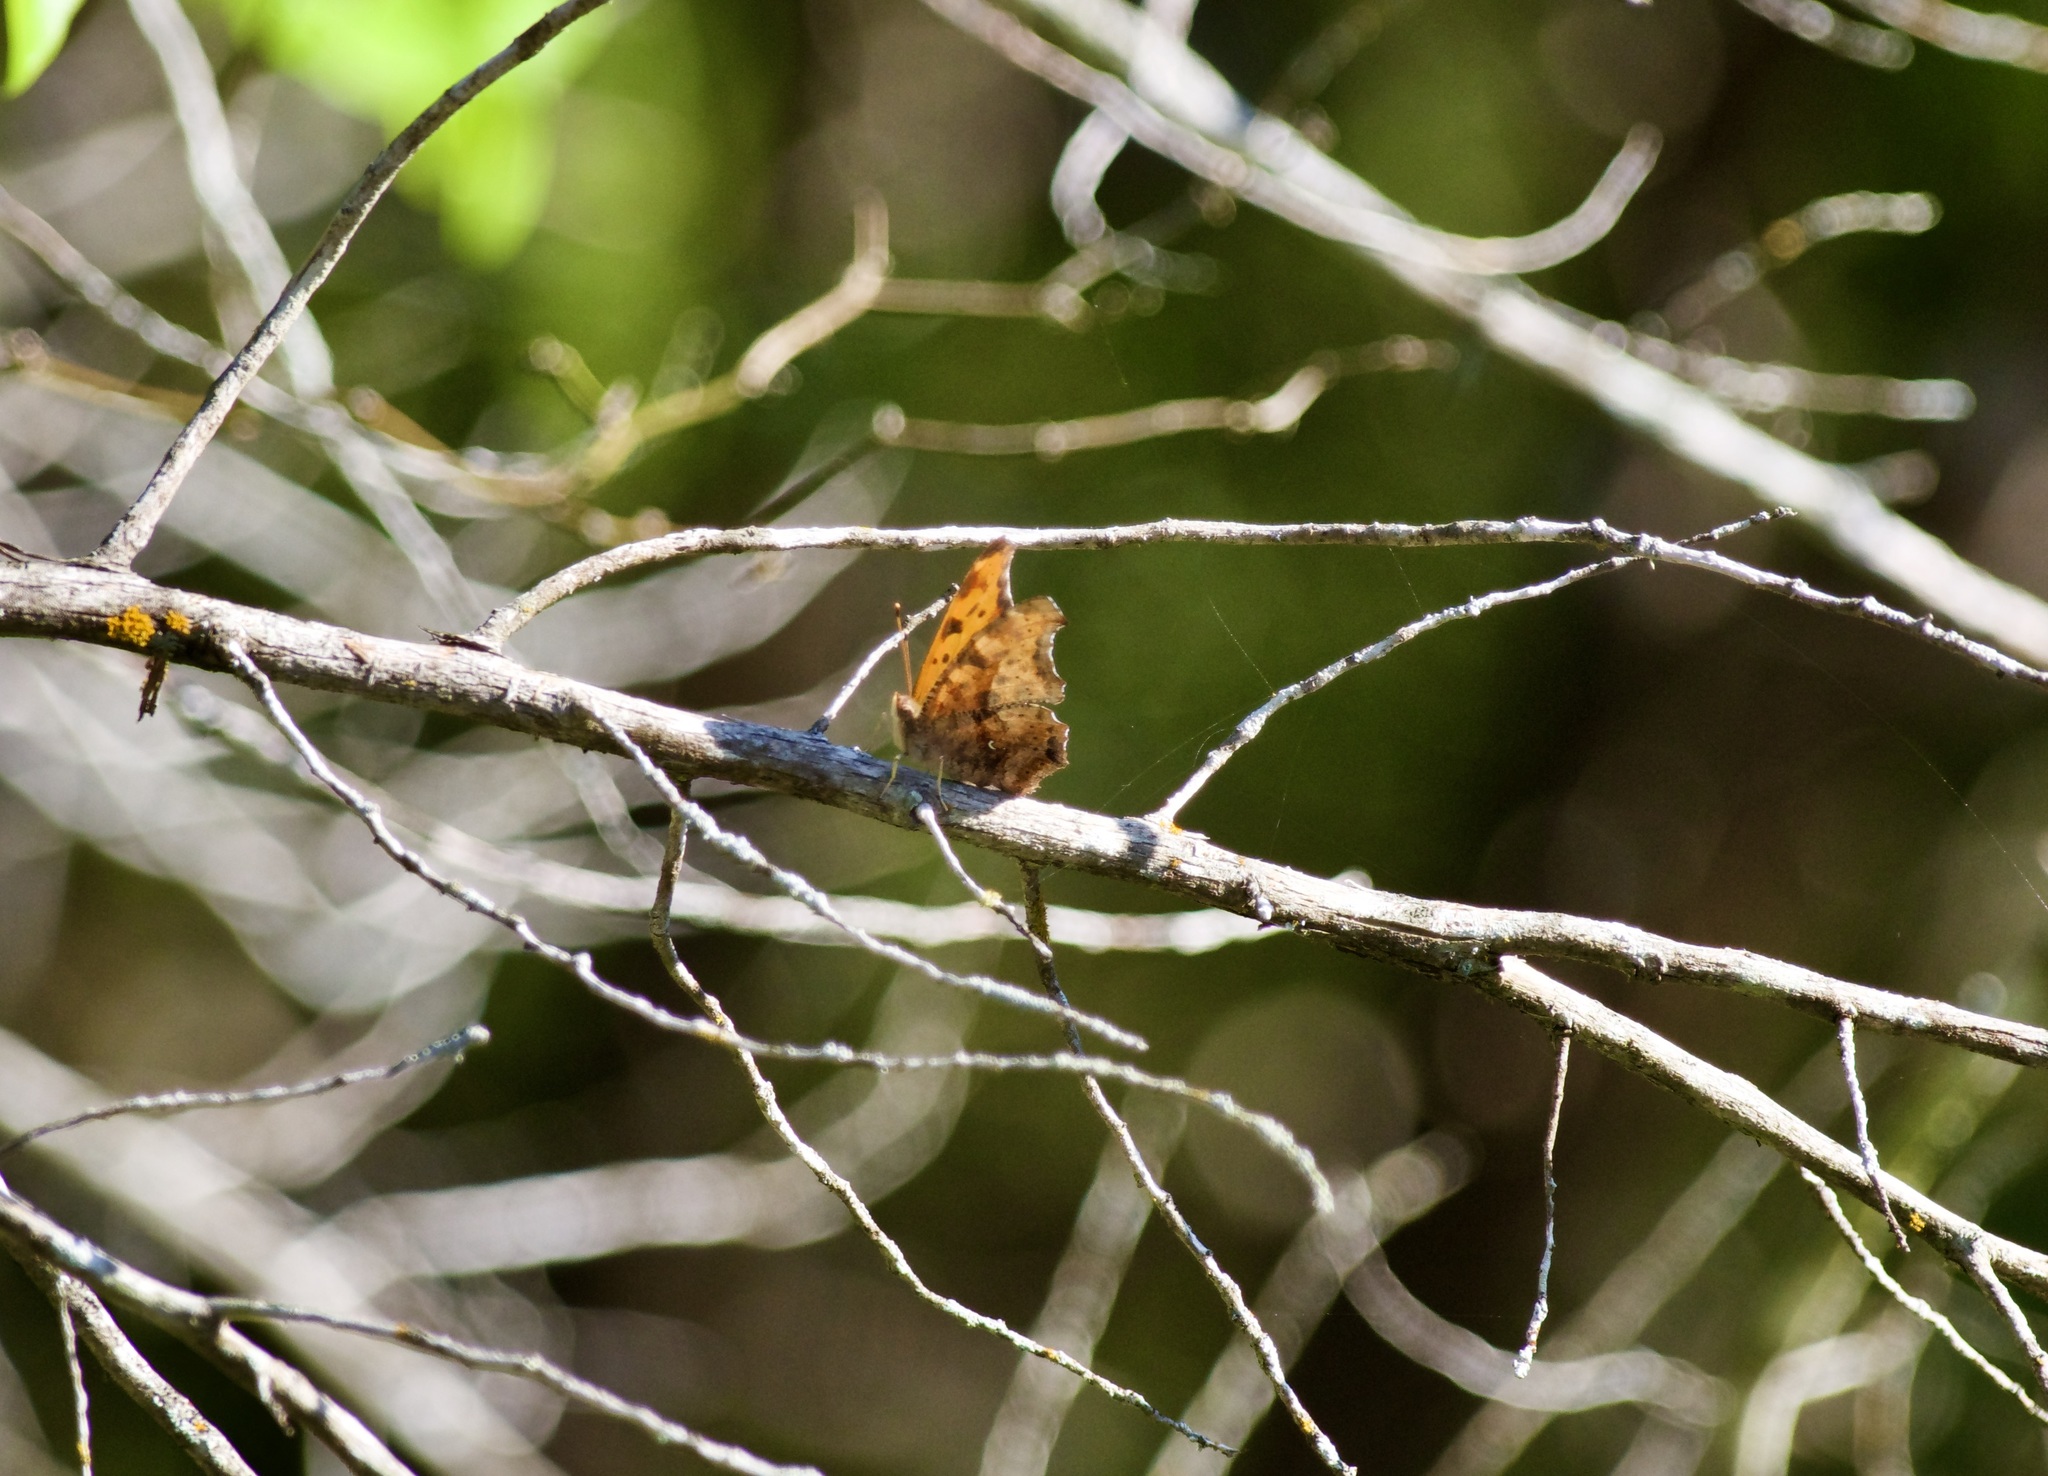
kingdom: Animalia
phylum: Arthropoda
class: Insecta
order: Lepidoptera
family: Nymphalidae
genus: Polygonia
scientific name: Polygonia interrogationis
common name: Question mark
